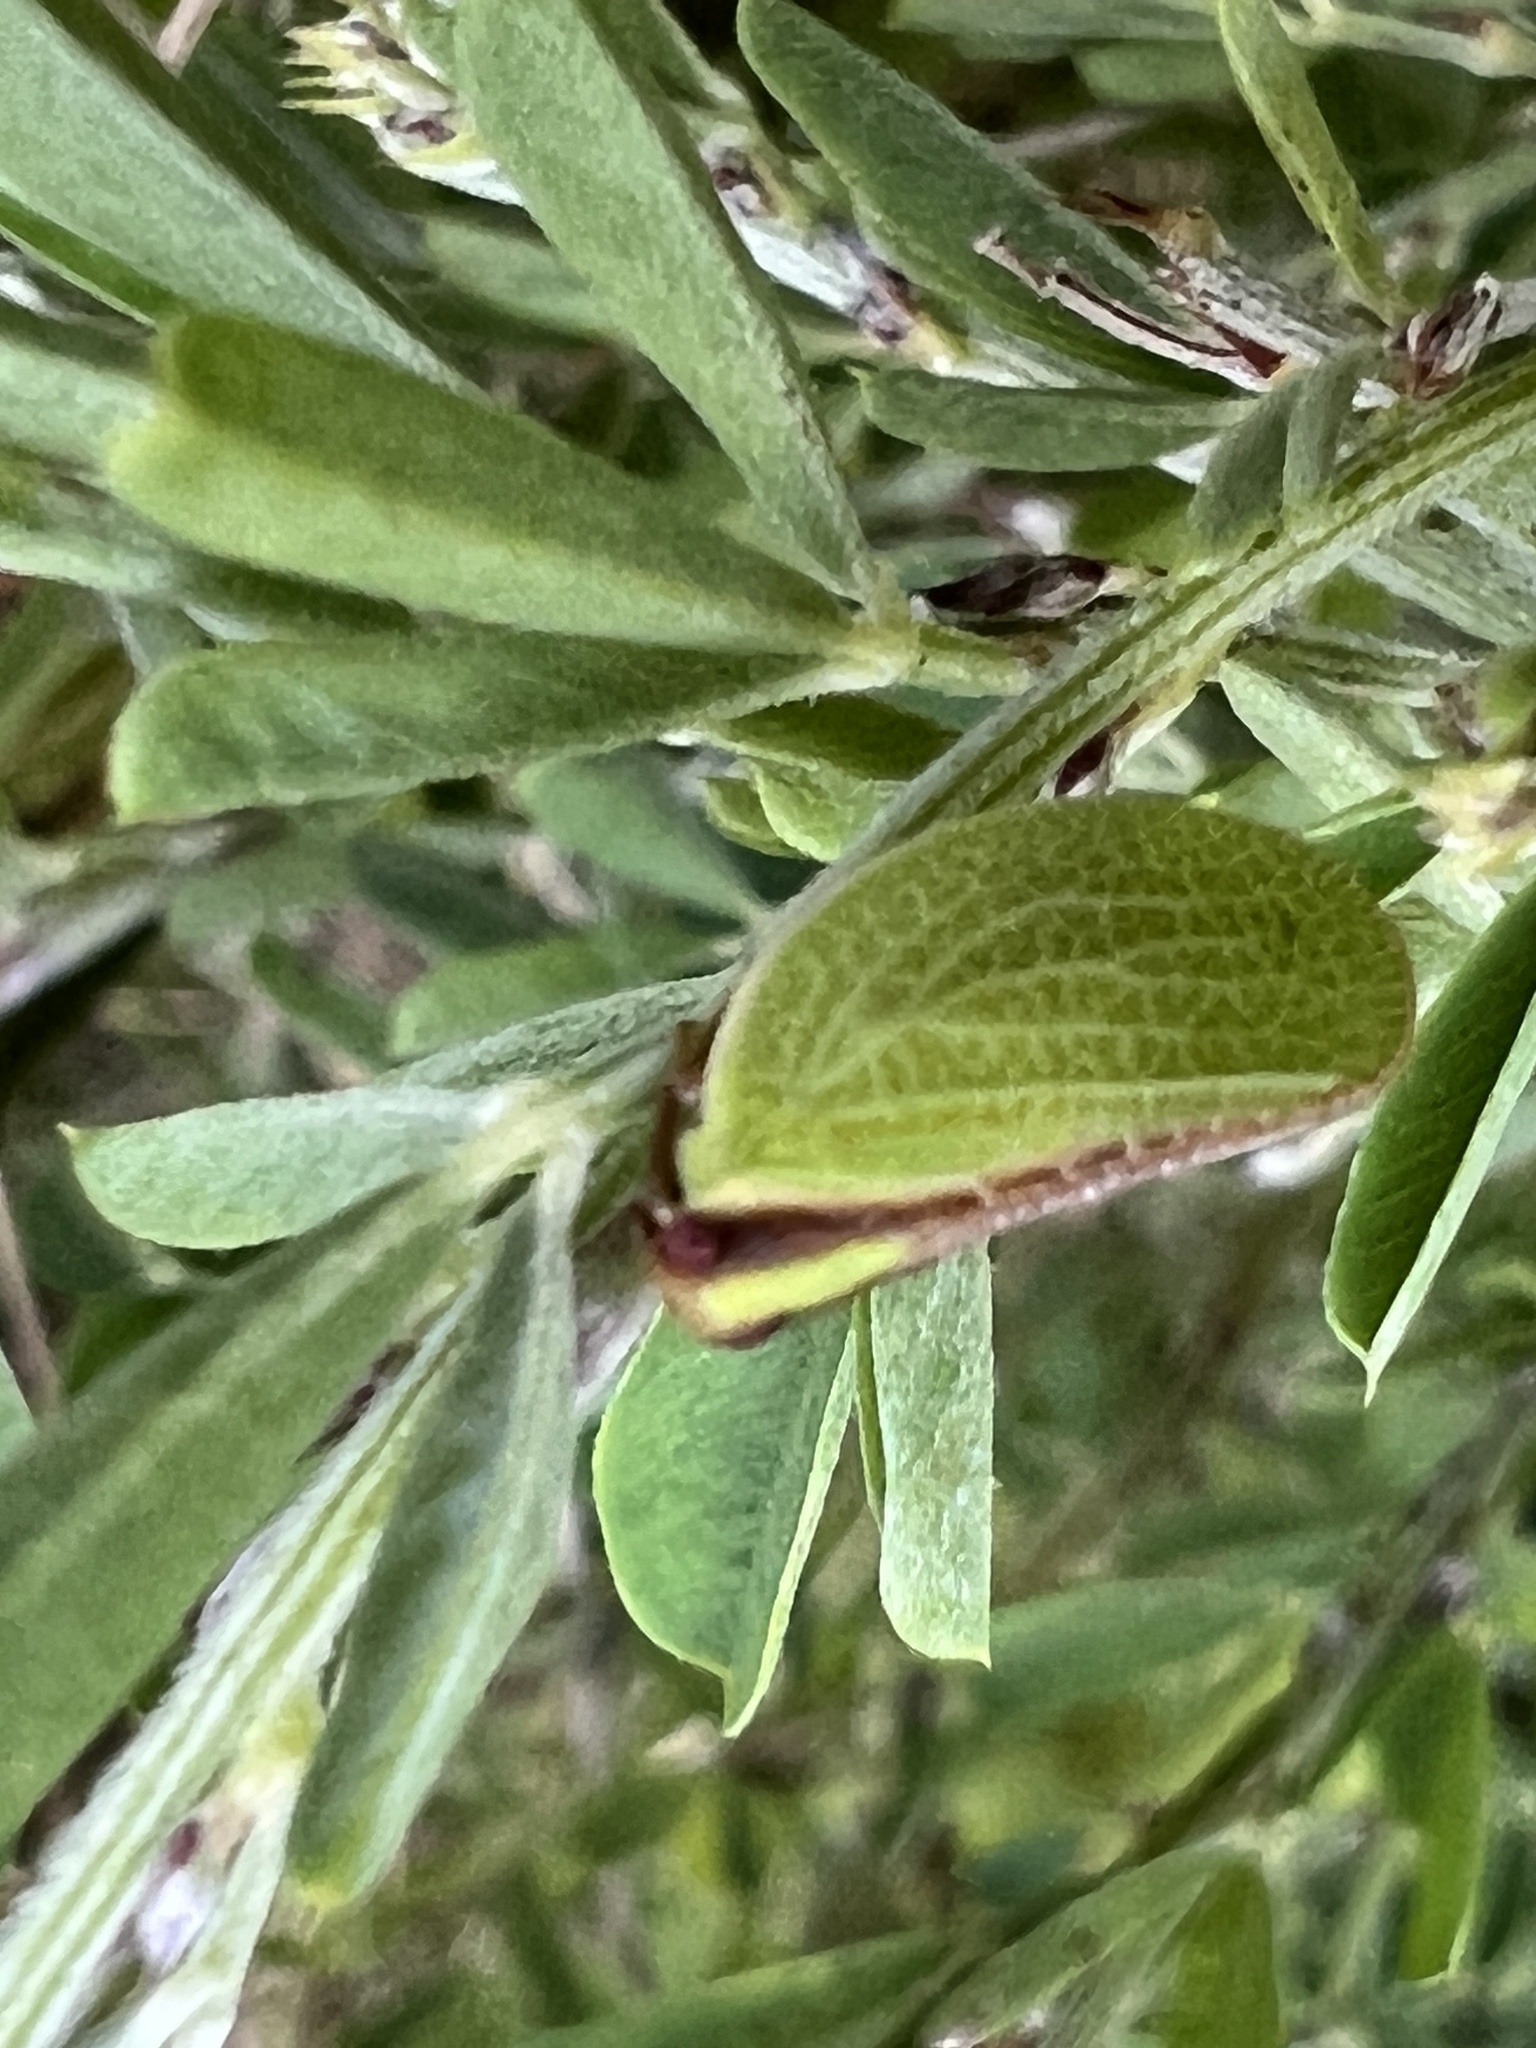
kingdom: Animalia
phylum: Arthropoda
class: Insecta
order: Hemiptera
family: Acanaloniidae
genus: Acanalonia
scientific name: Acanalonia bivittata
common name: Two-striped planthopper
